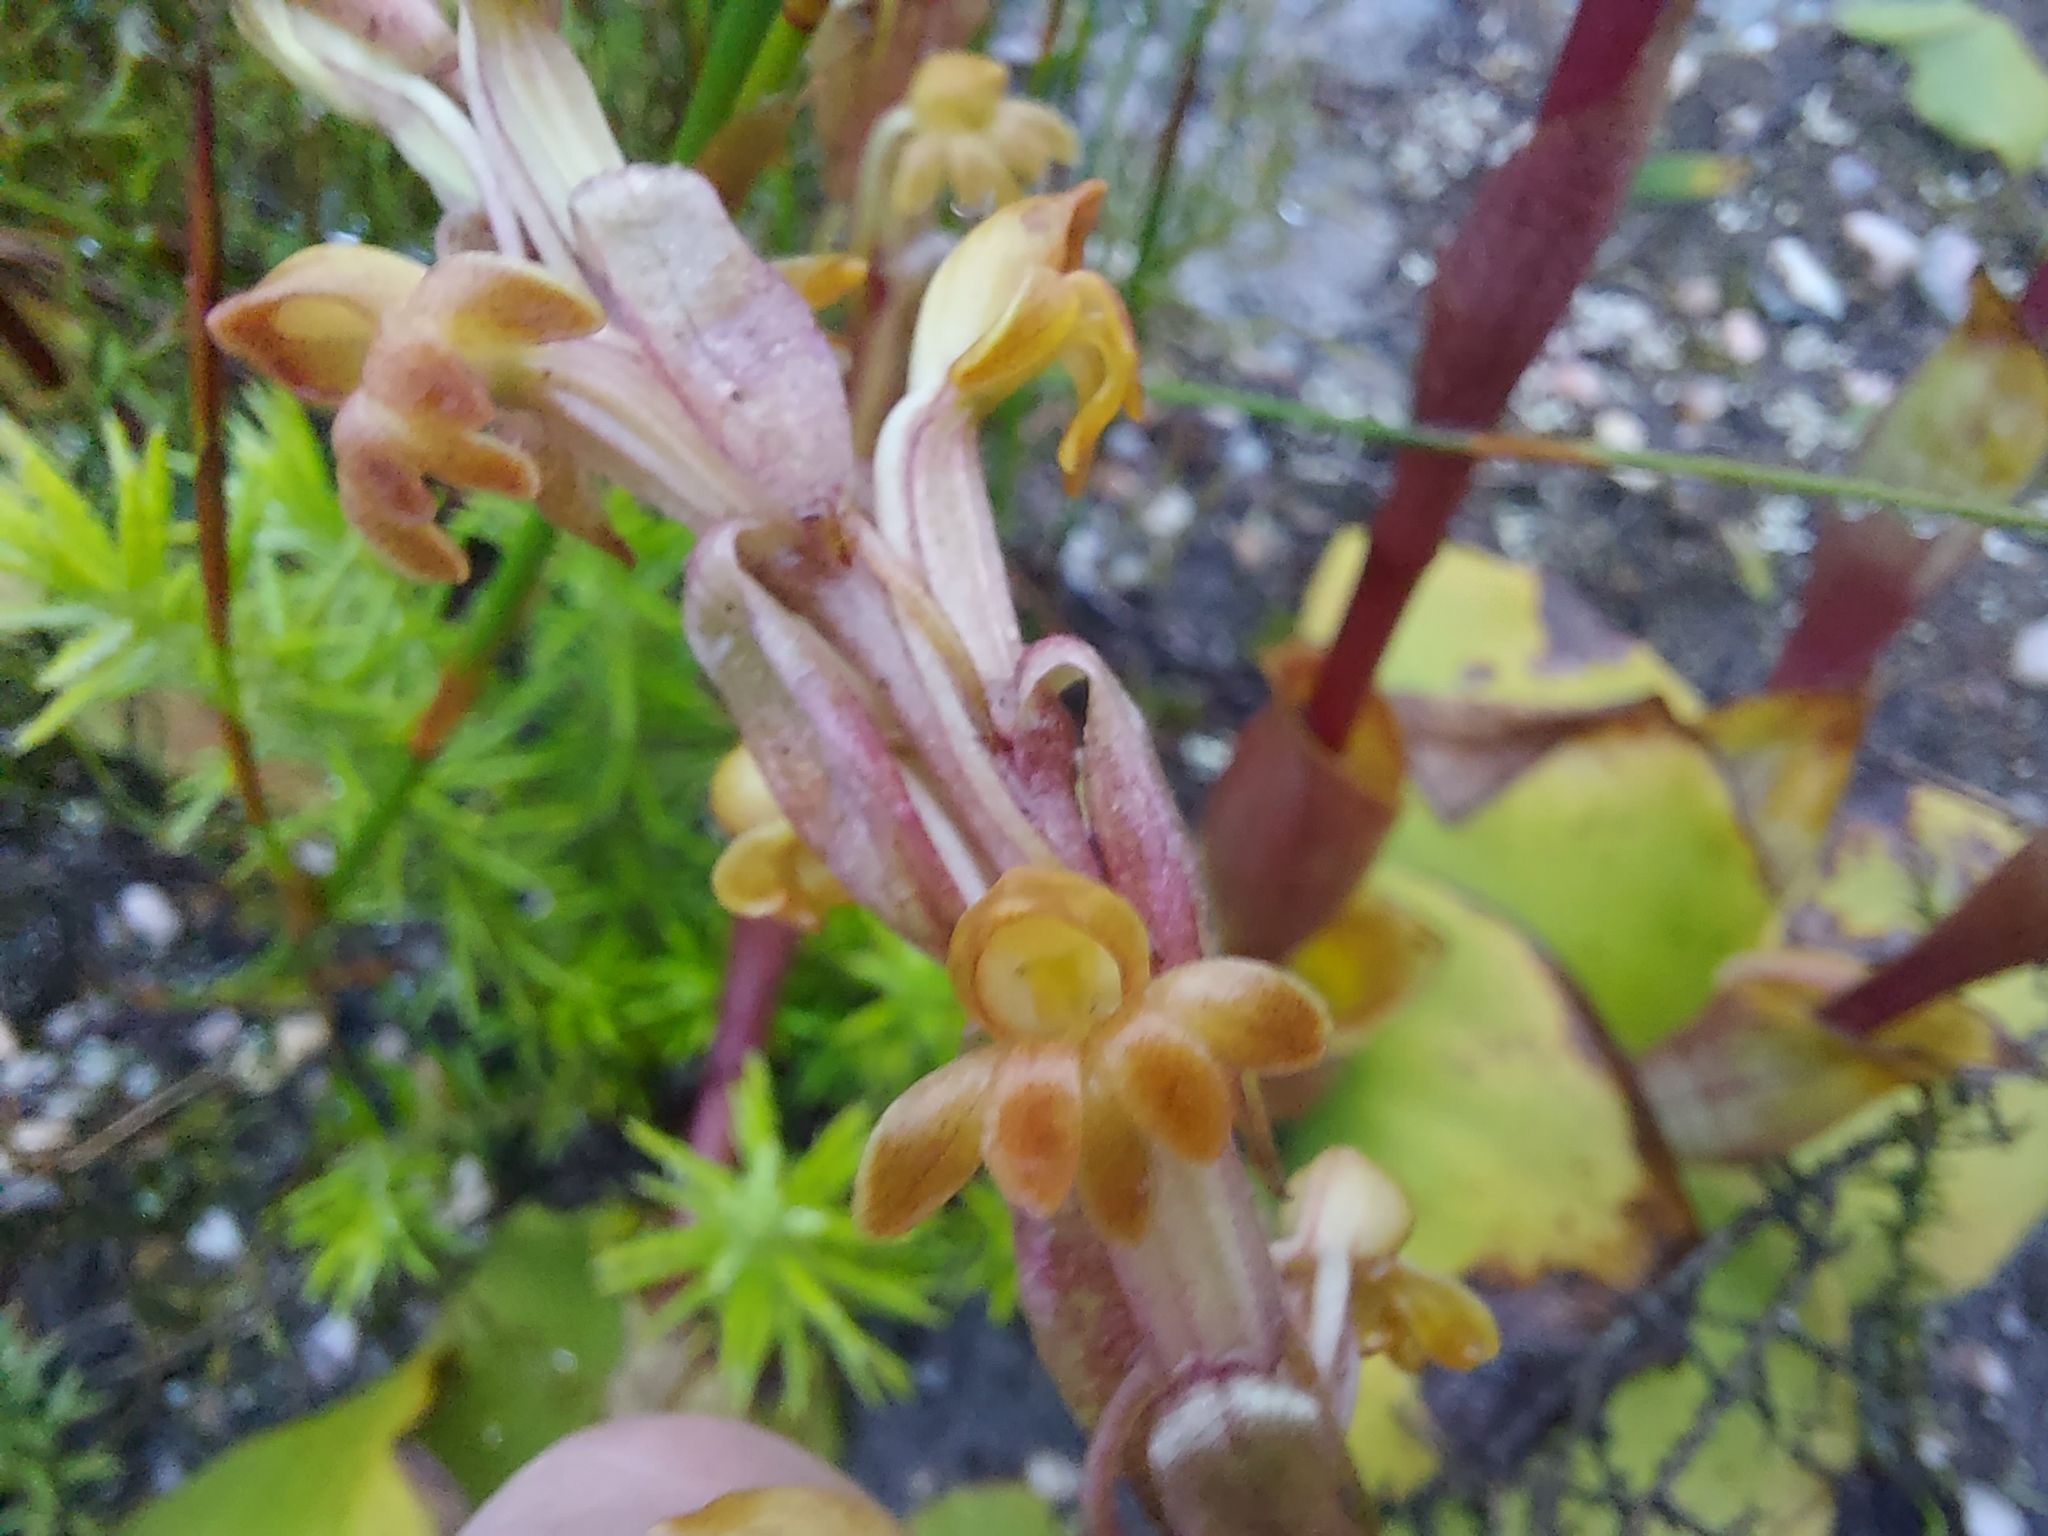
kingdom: Plantae
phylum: Tracheophyta
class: Liliopsida
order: Asparagales
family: Orchidaceae
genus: Satyrium
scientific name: Satyrium bicorne
